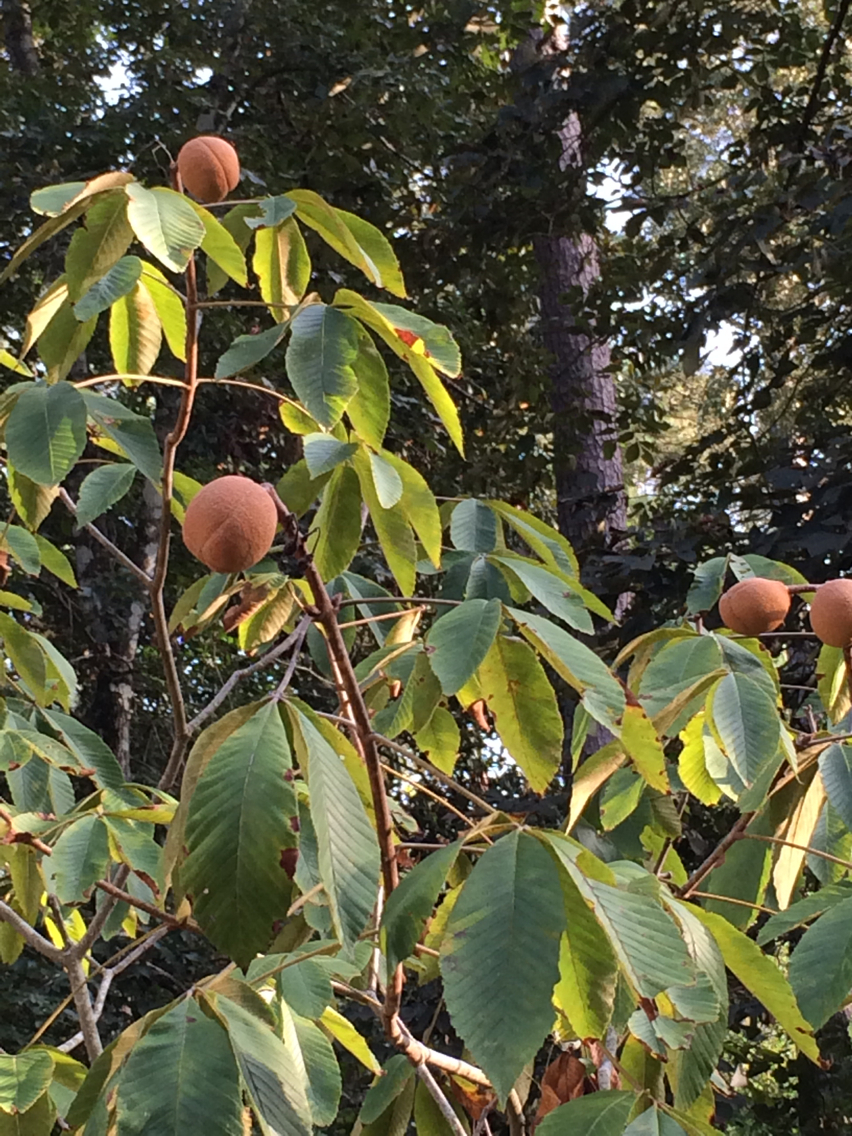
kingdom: Plantae
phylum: Tracheophyta
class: Magnoliopsida
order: Sapindales
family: Sapindaceae
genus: Aesculus
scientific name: Aesculus pavia
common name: Red buckeye
